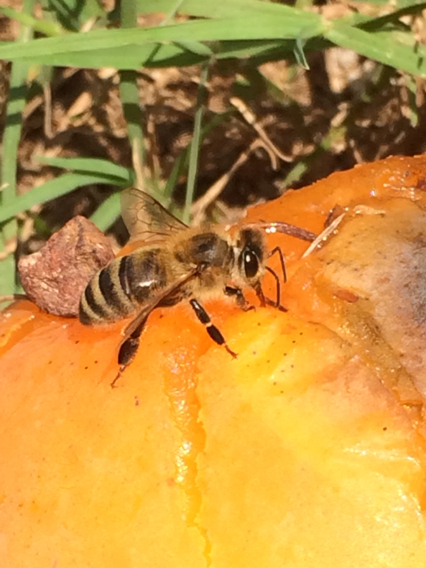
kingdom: Animalia
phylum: Arthropoda
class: Insecta
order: Hymenoptera
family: Apidae
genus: Apis
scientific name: Apis mellifera
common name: Honey bee
